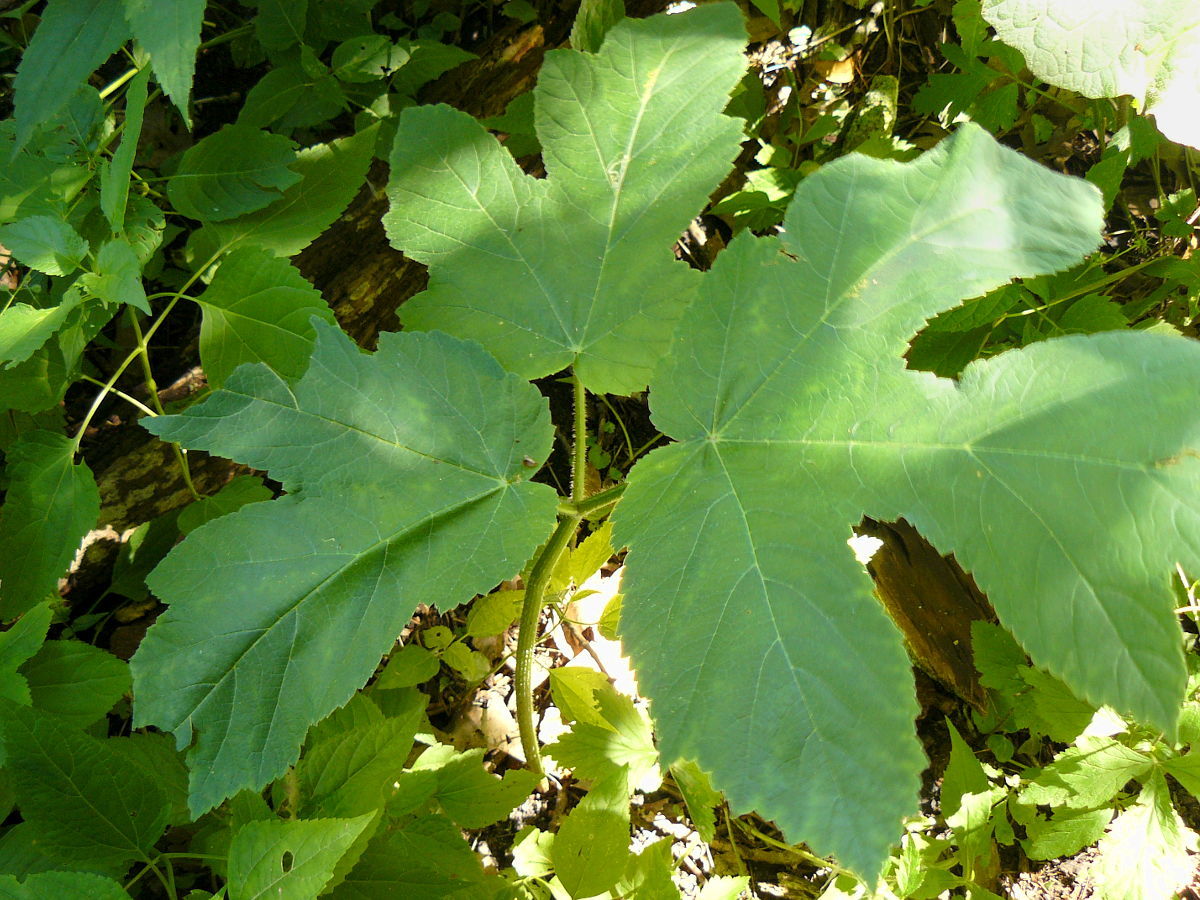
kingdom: Plantae
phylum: Tracheophyta
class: Magnoliopsida
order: Apiales
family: Apiaceae
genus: Heracleum
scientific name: Heracleum maximum
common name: American cow parsnip
